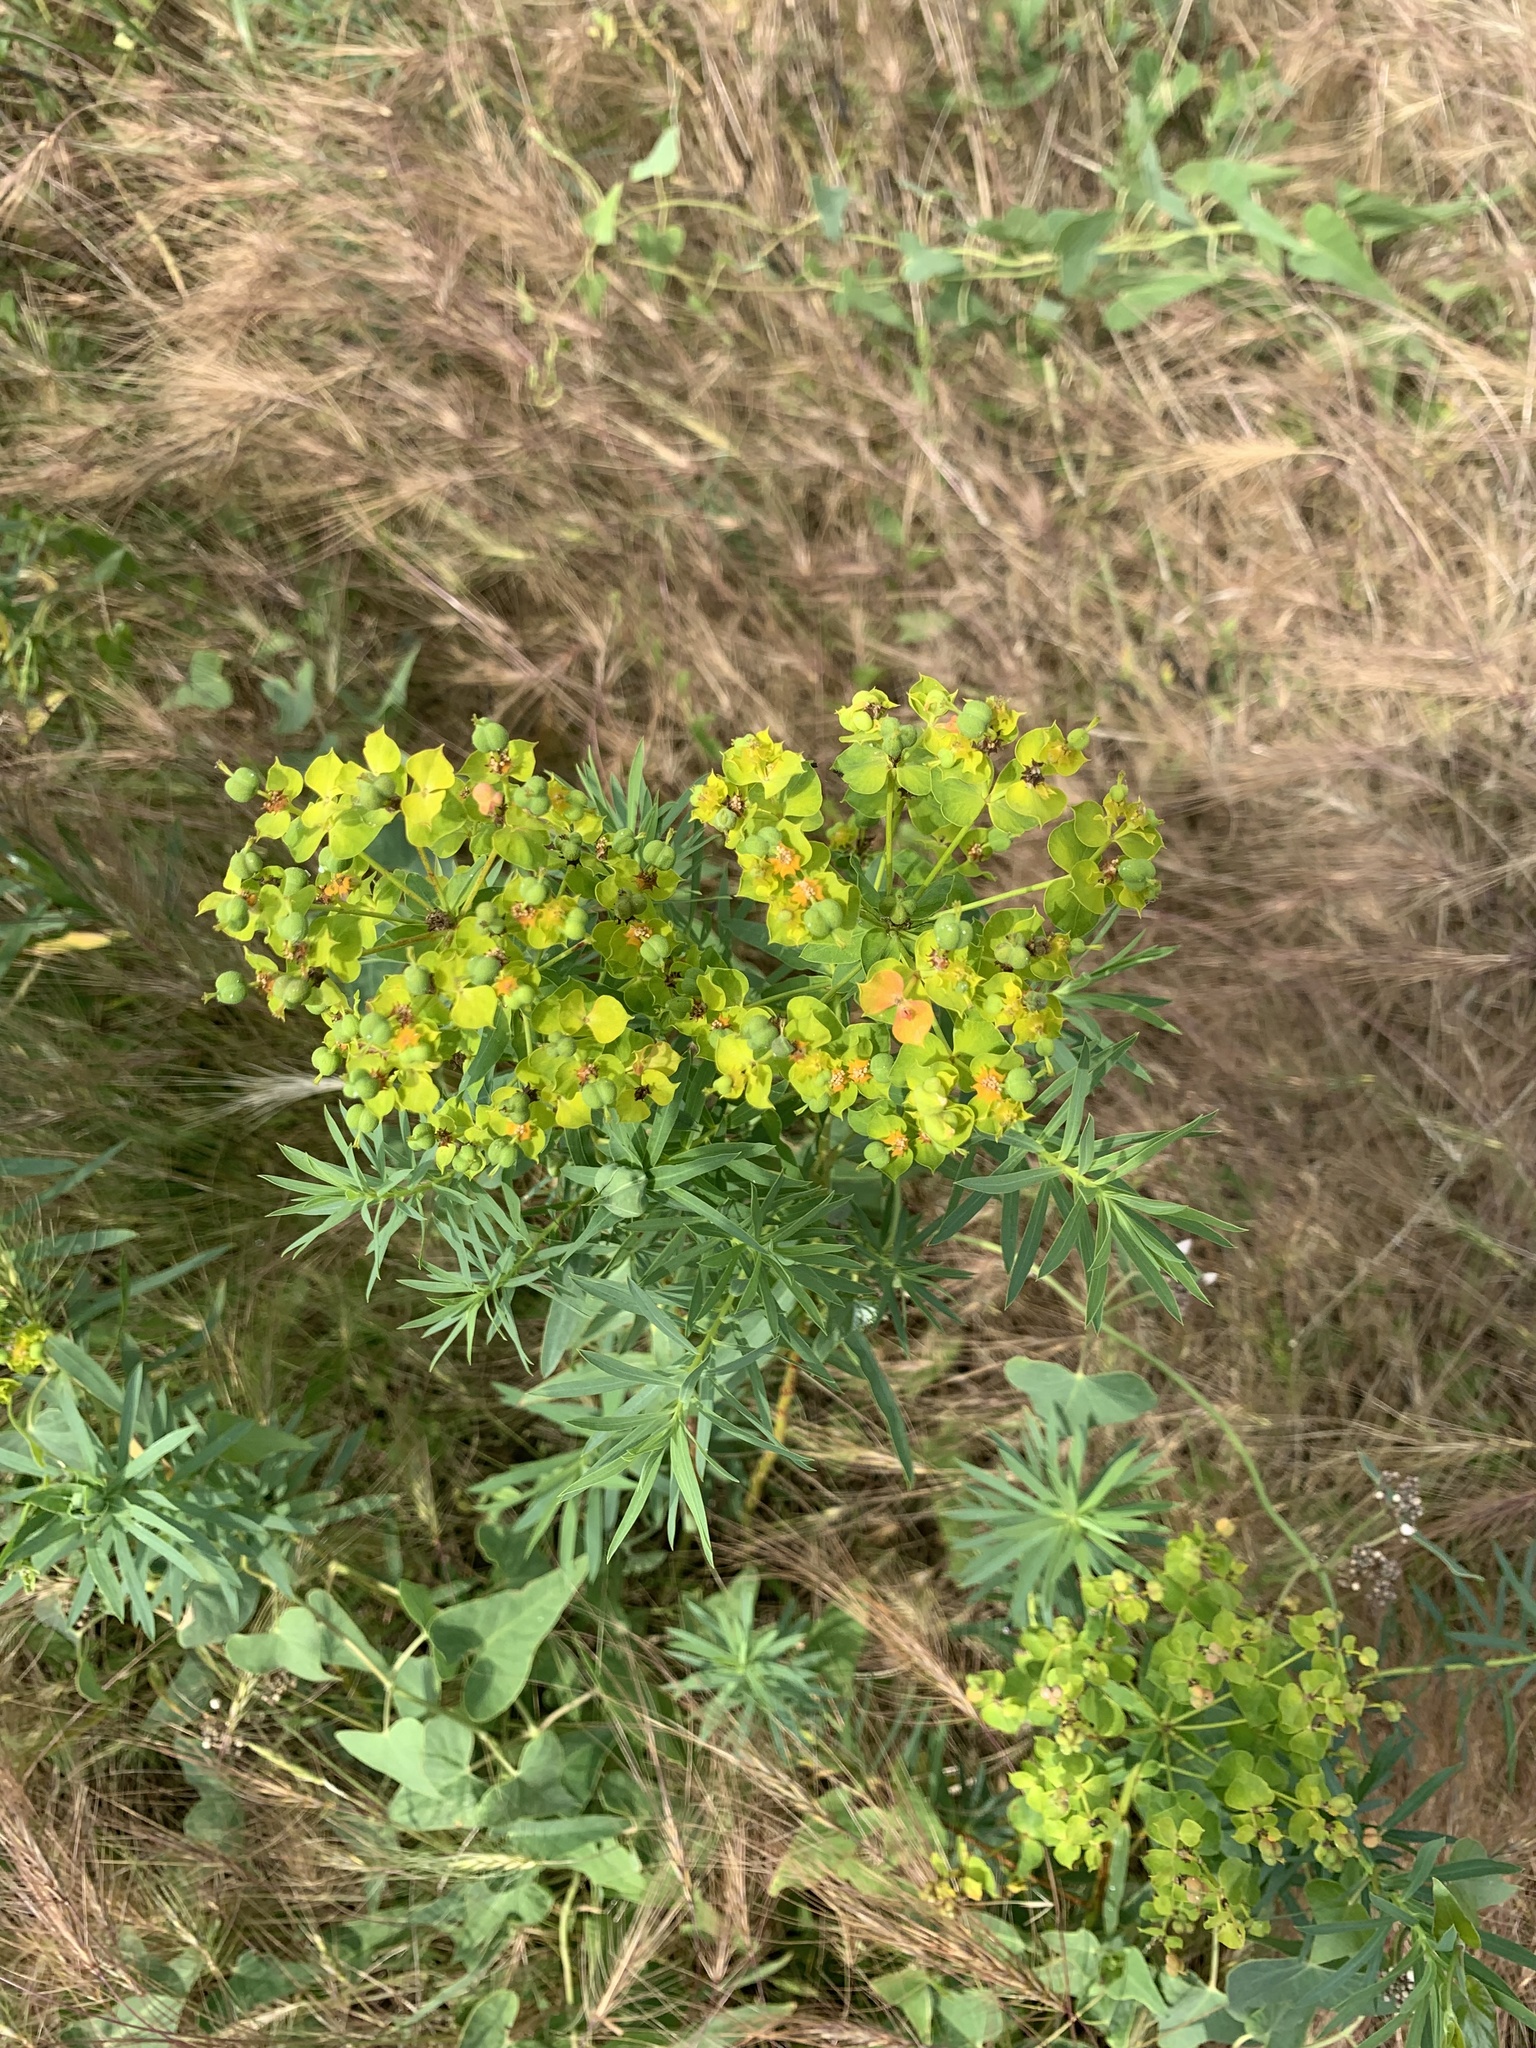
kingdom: Plantae
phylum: Tracheophyta
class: Magnoliopsida
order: Malpighiales
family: Euphorbiaceae
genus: Euphorbia
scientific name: Euphorbia virgata
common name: Leafy spurge
